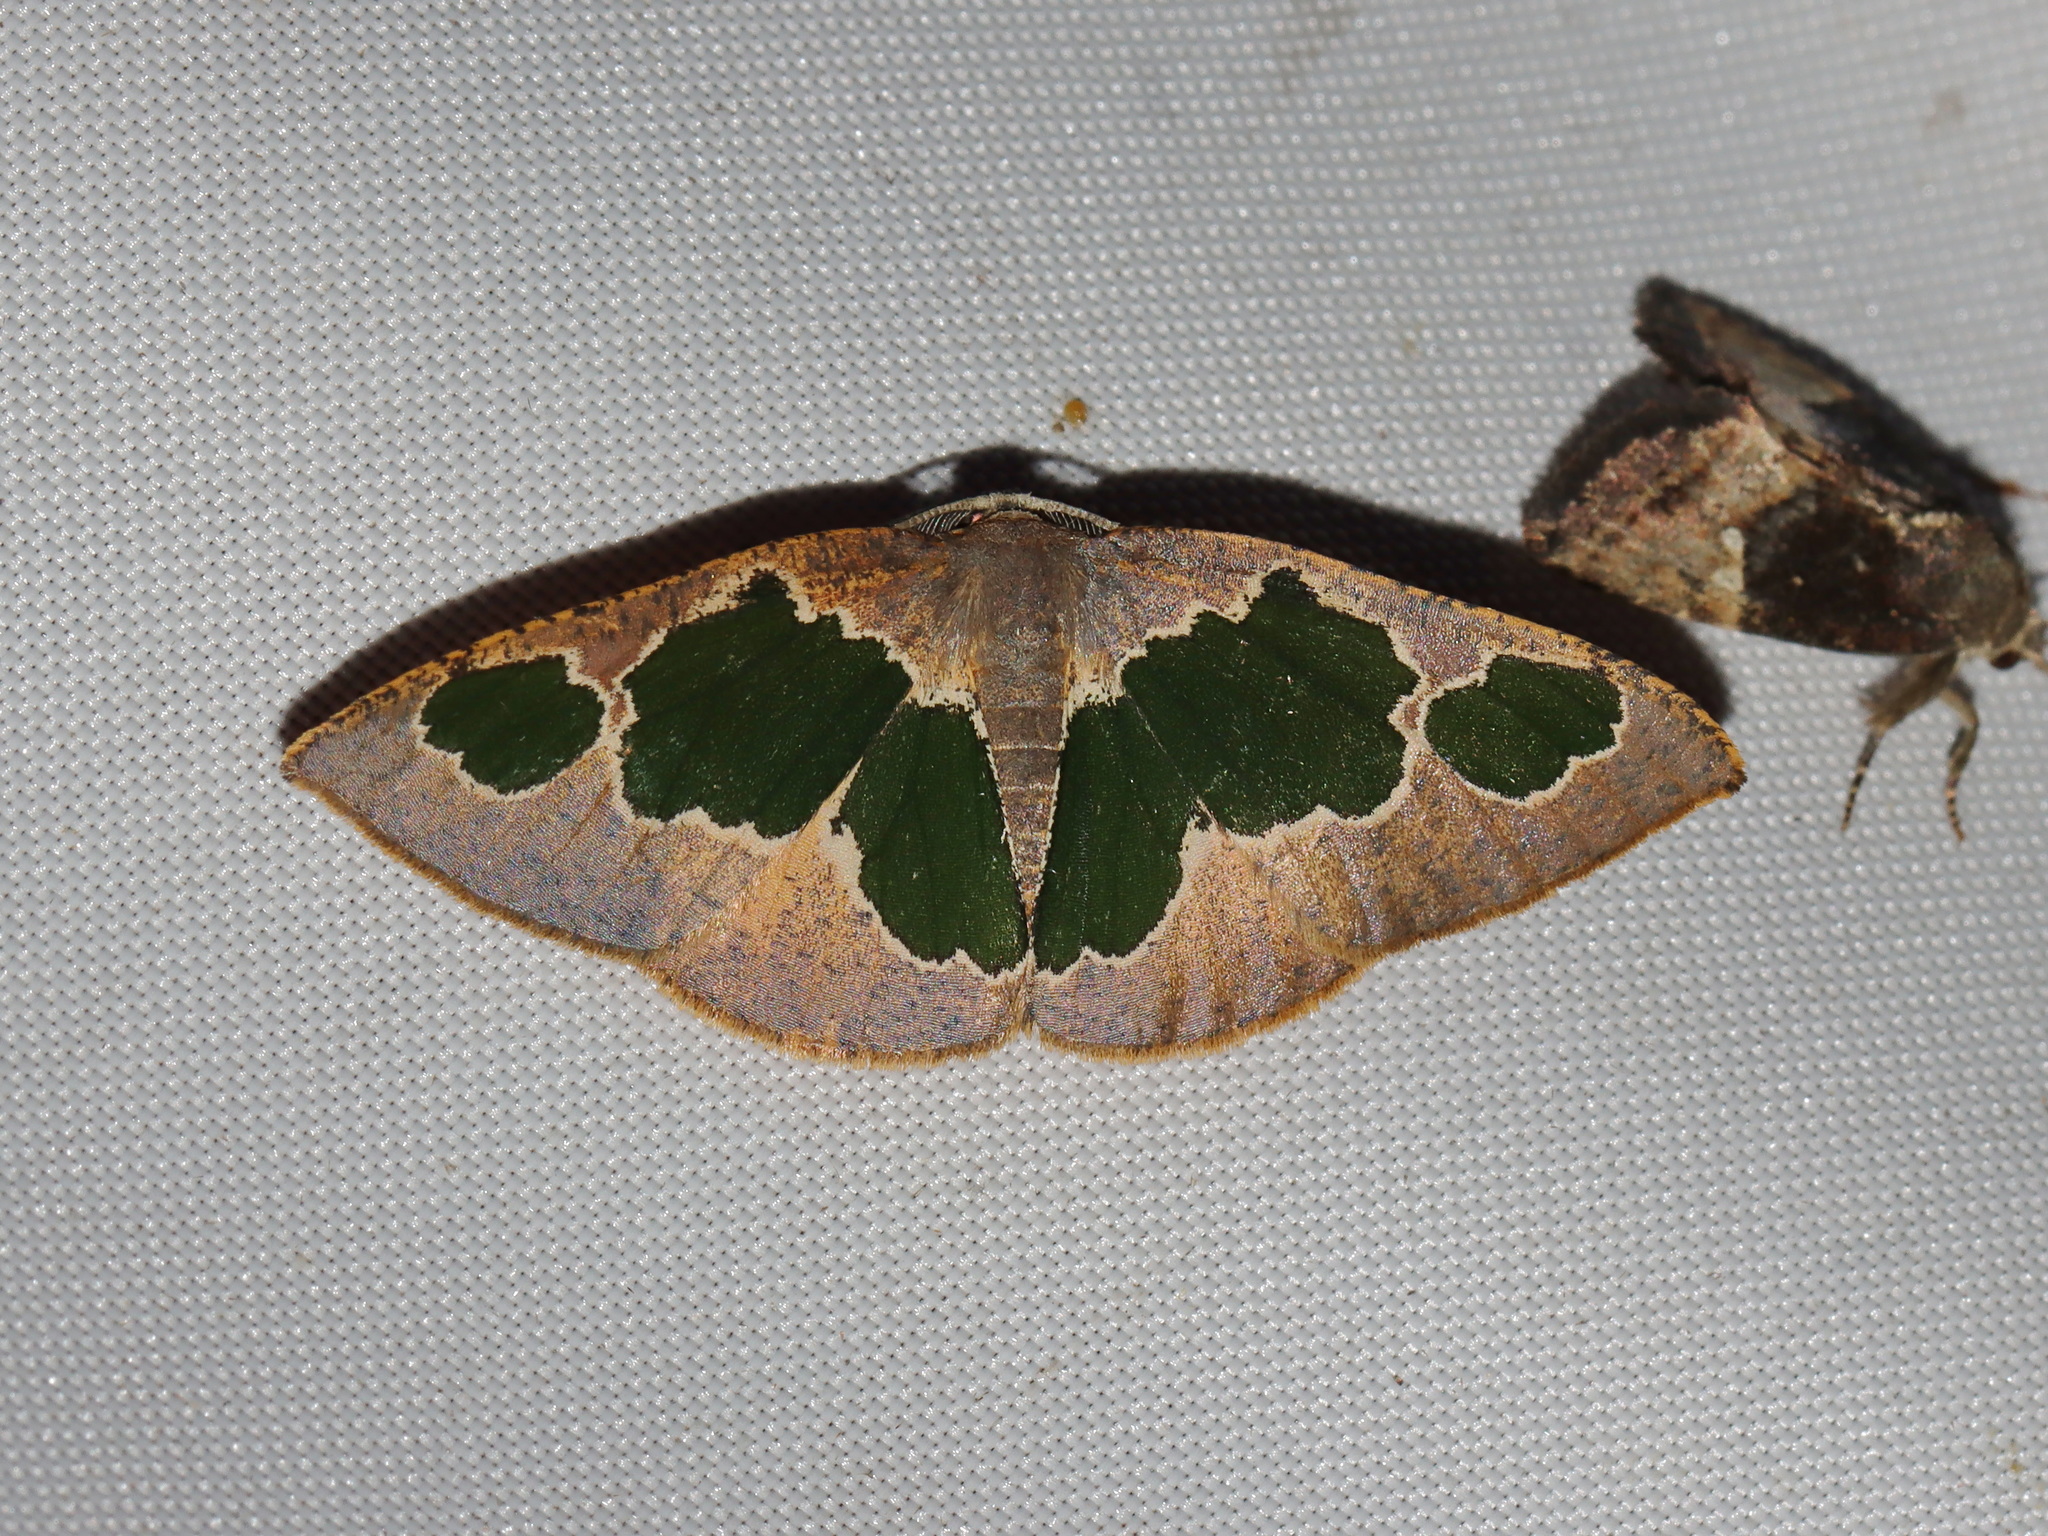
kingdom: Animalia
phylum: Arthropoda
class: Insecta
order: Lepidoptera
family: Geometridae
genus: Celenna
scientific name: Celenna festivaria
